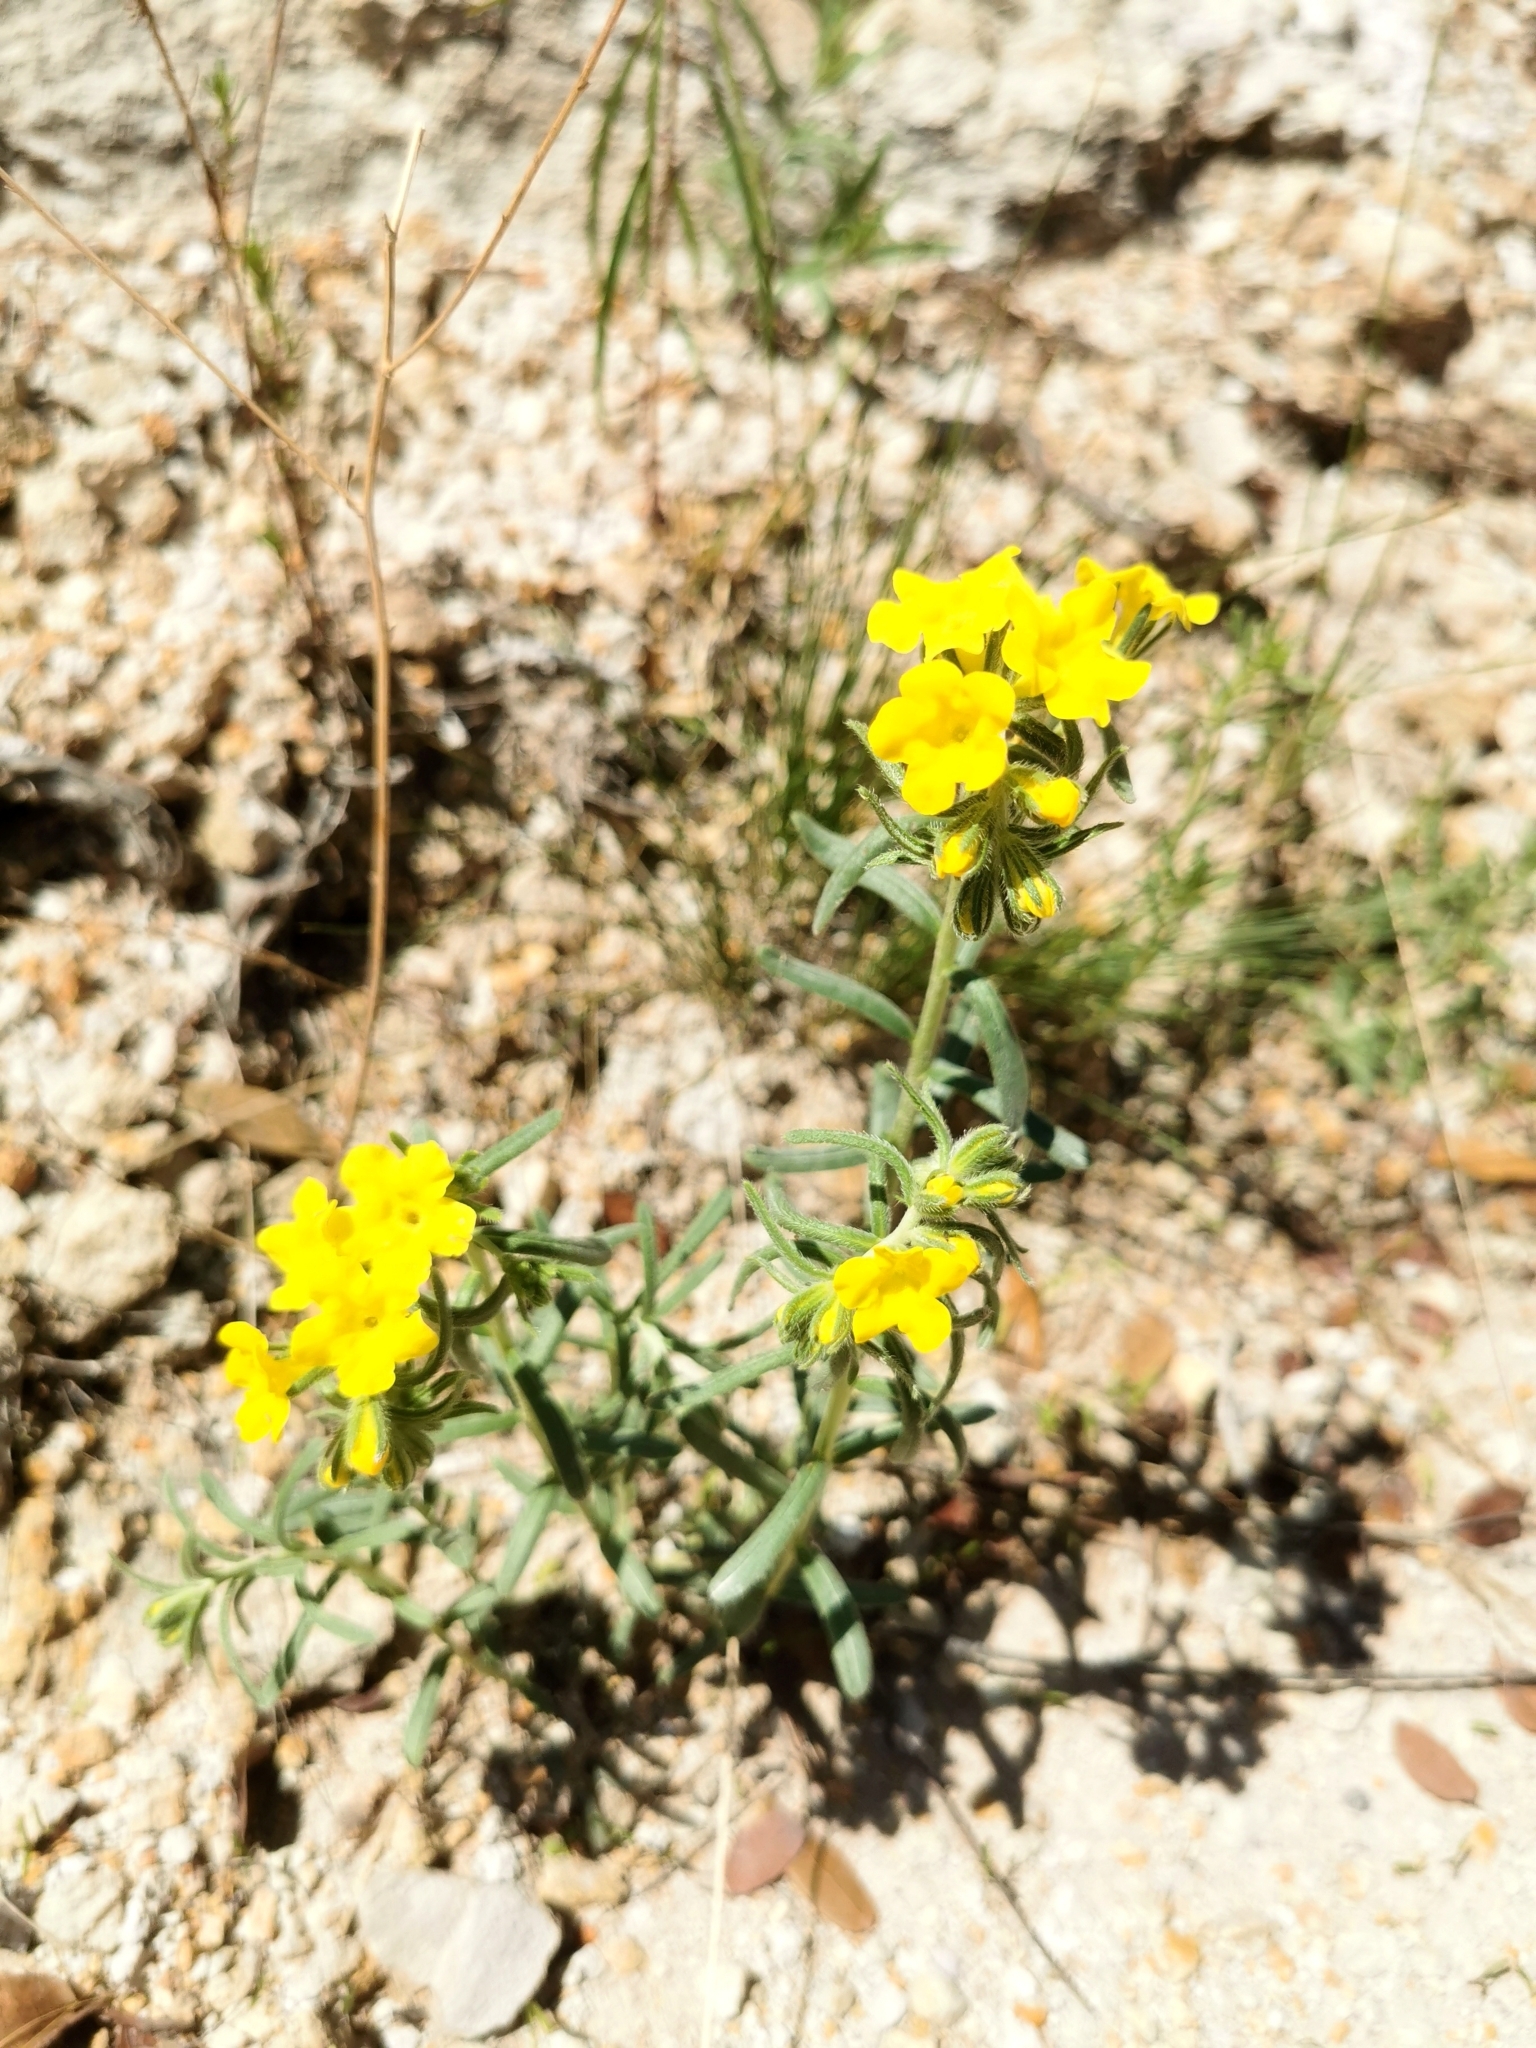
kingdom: Plantae
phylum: Tracheophyta
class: Magnoliopsida
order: Boraginales
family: Boraginaceae
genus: Lithospermum
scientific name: Lithospermum cobrense
